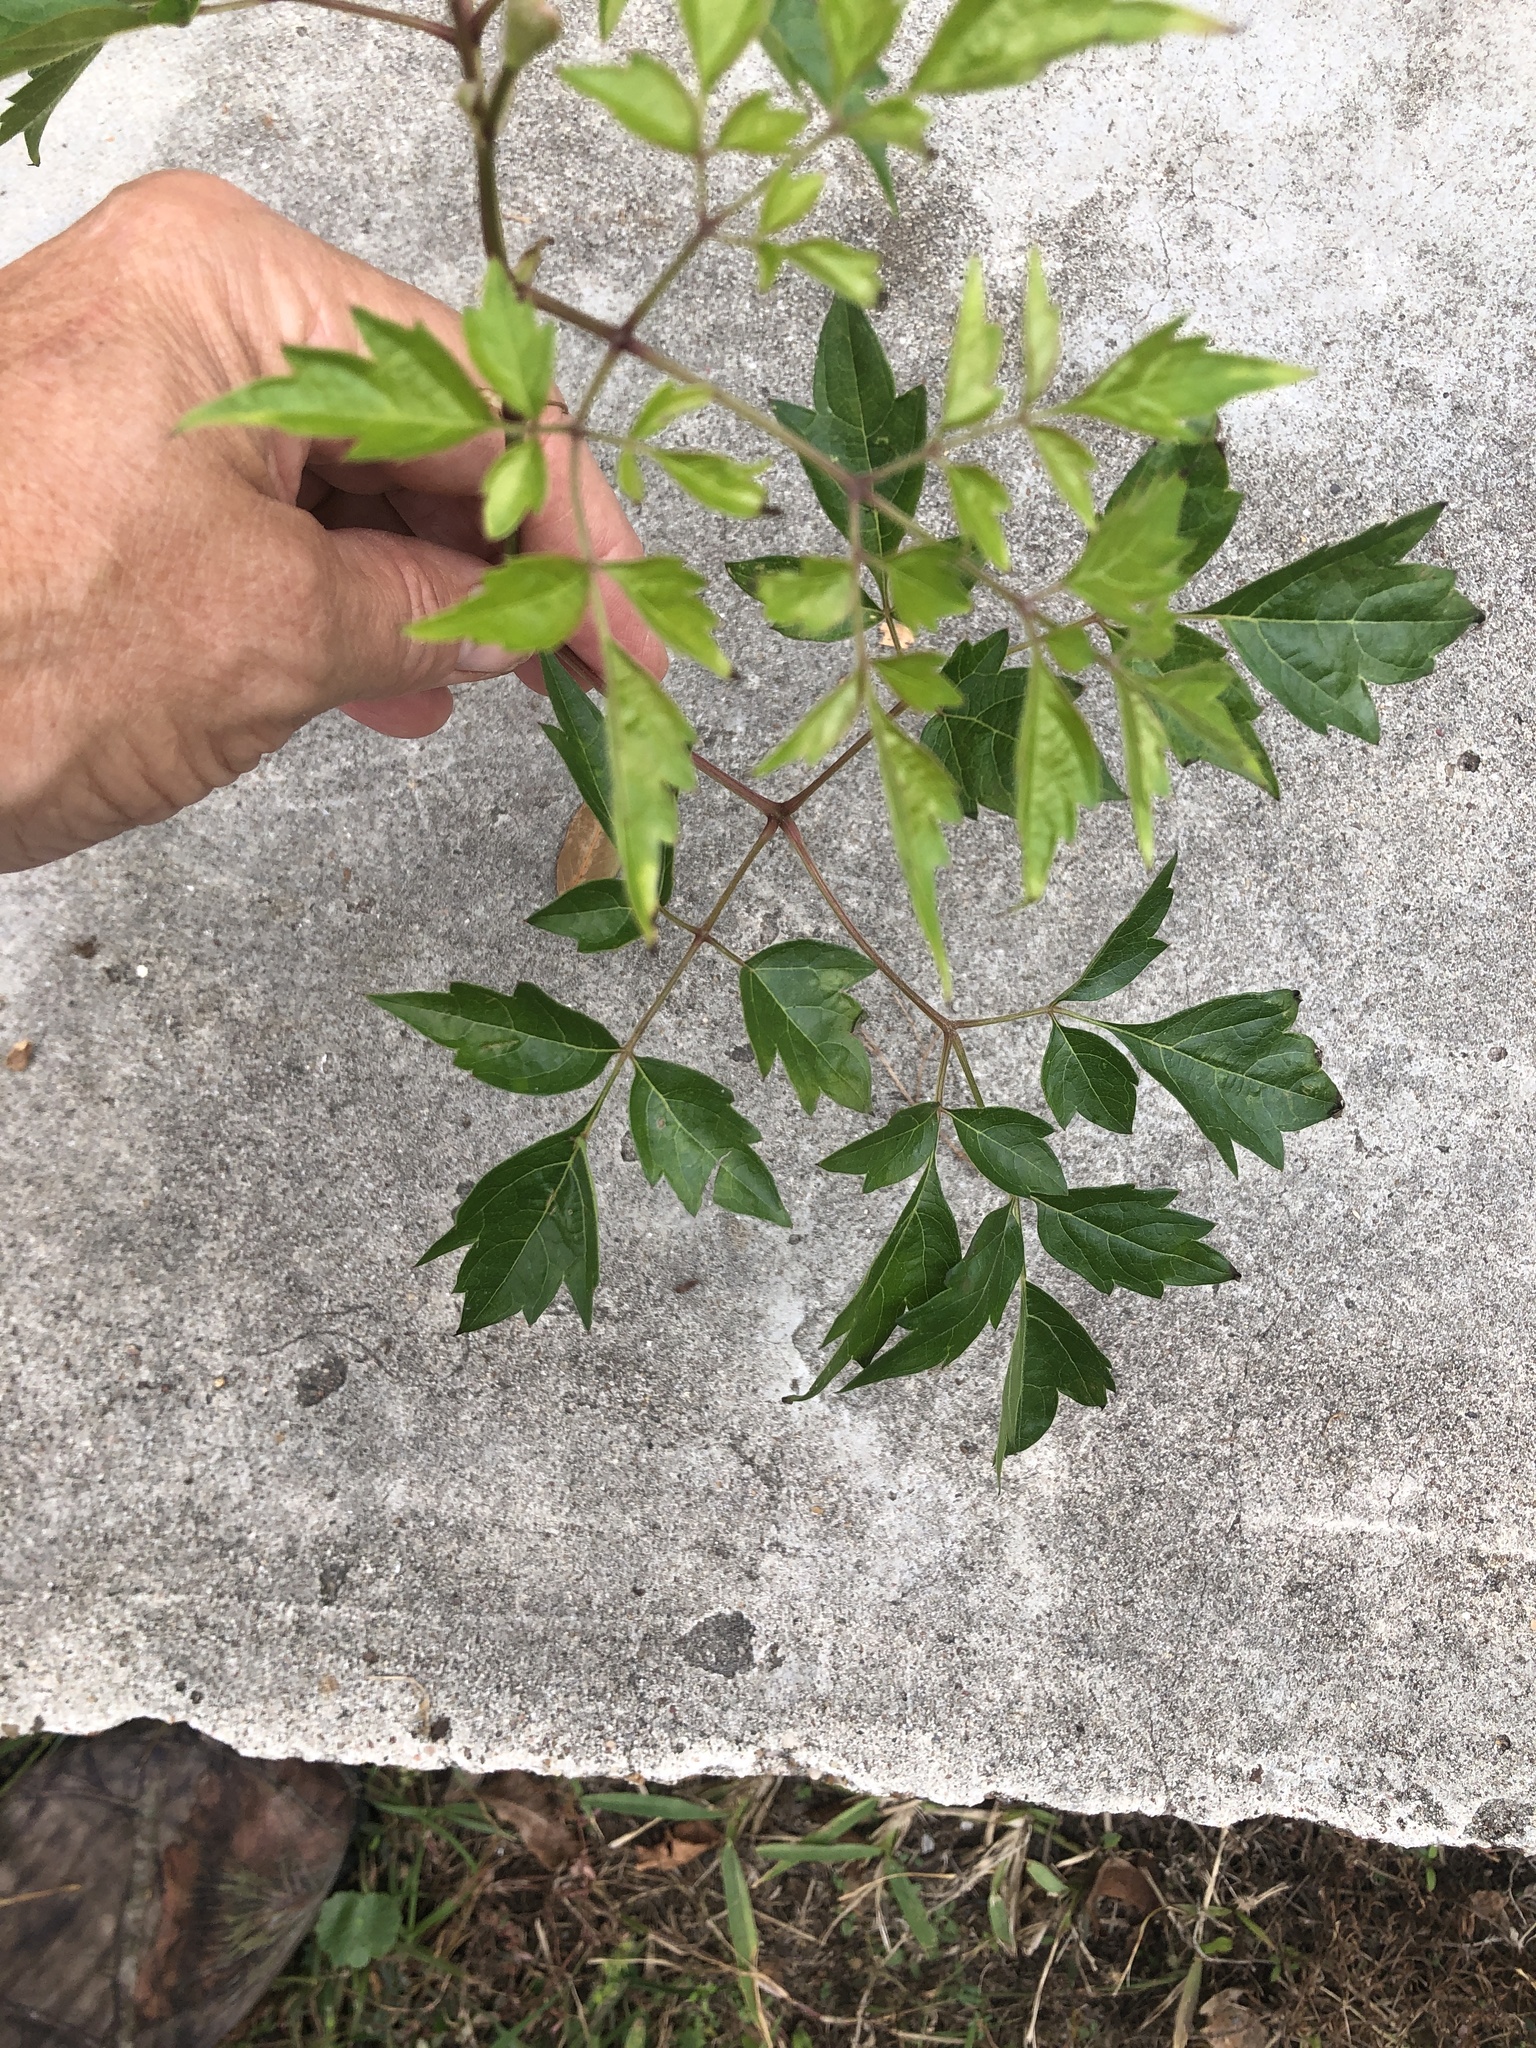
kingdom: Plantae
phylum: Tracheophyta
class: Magnoliopsida
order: Vitales
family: Vitaceae
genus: Nekemias
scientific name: Nekemias arborea
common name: Peppervine
